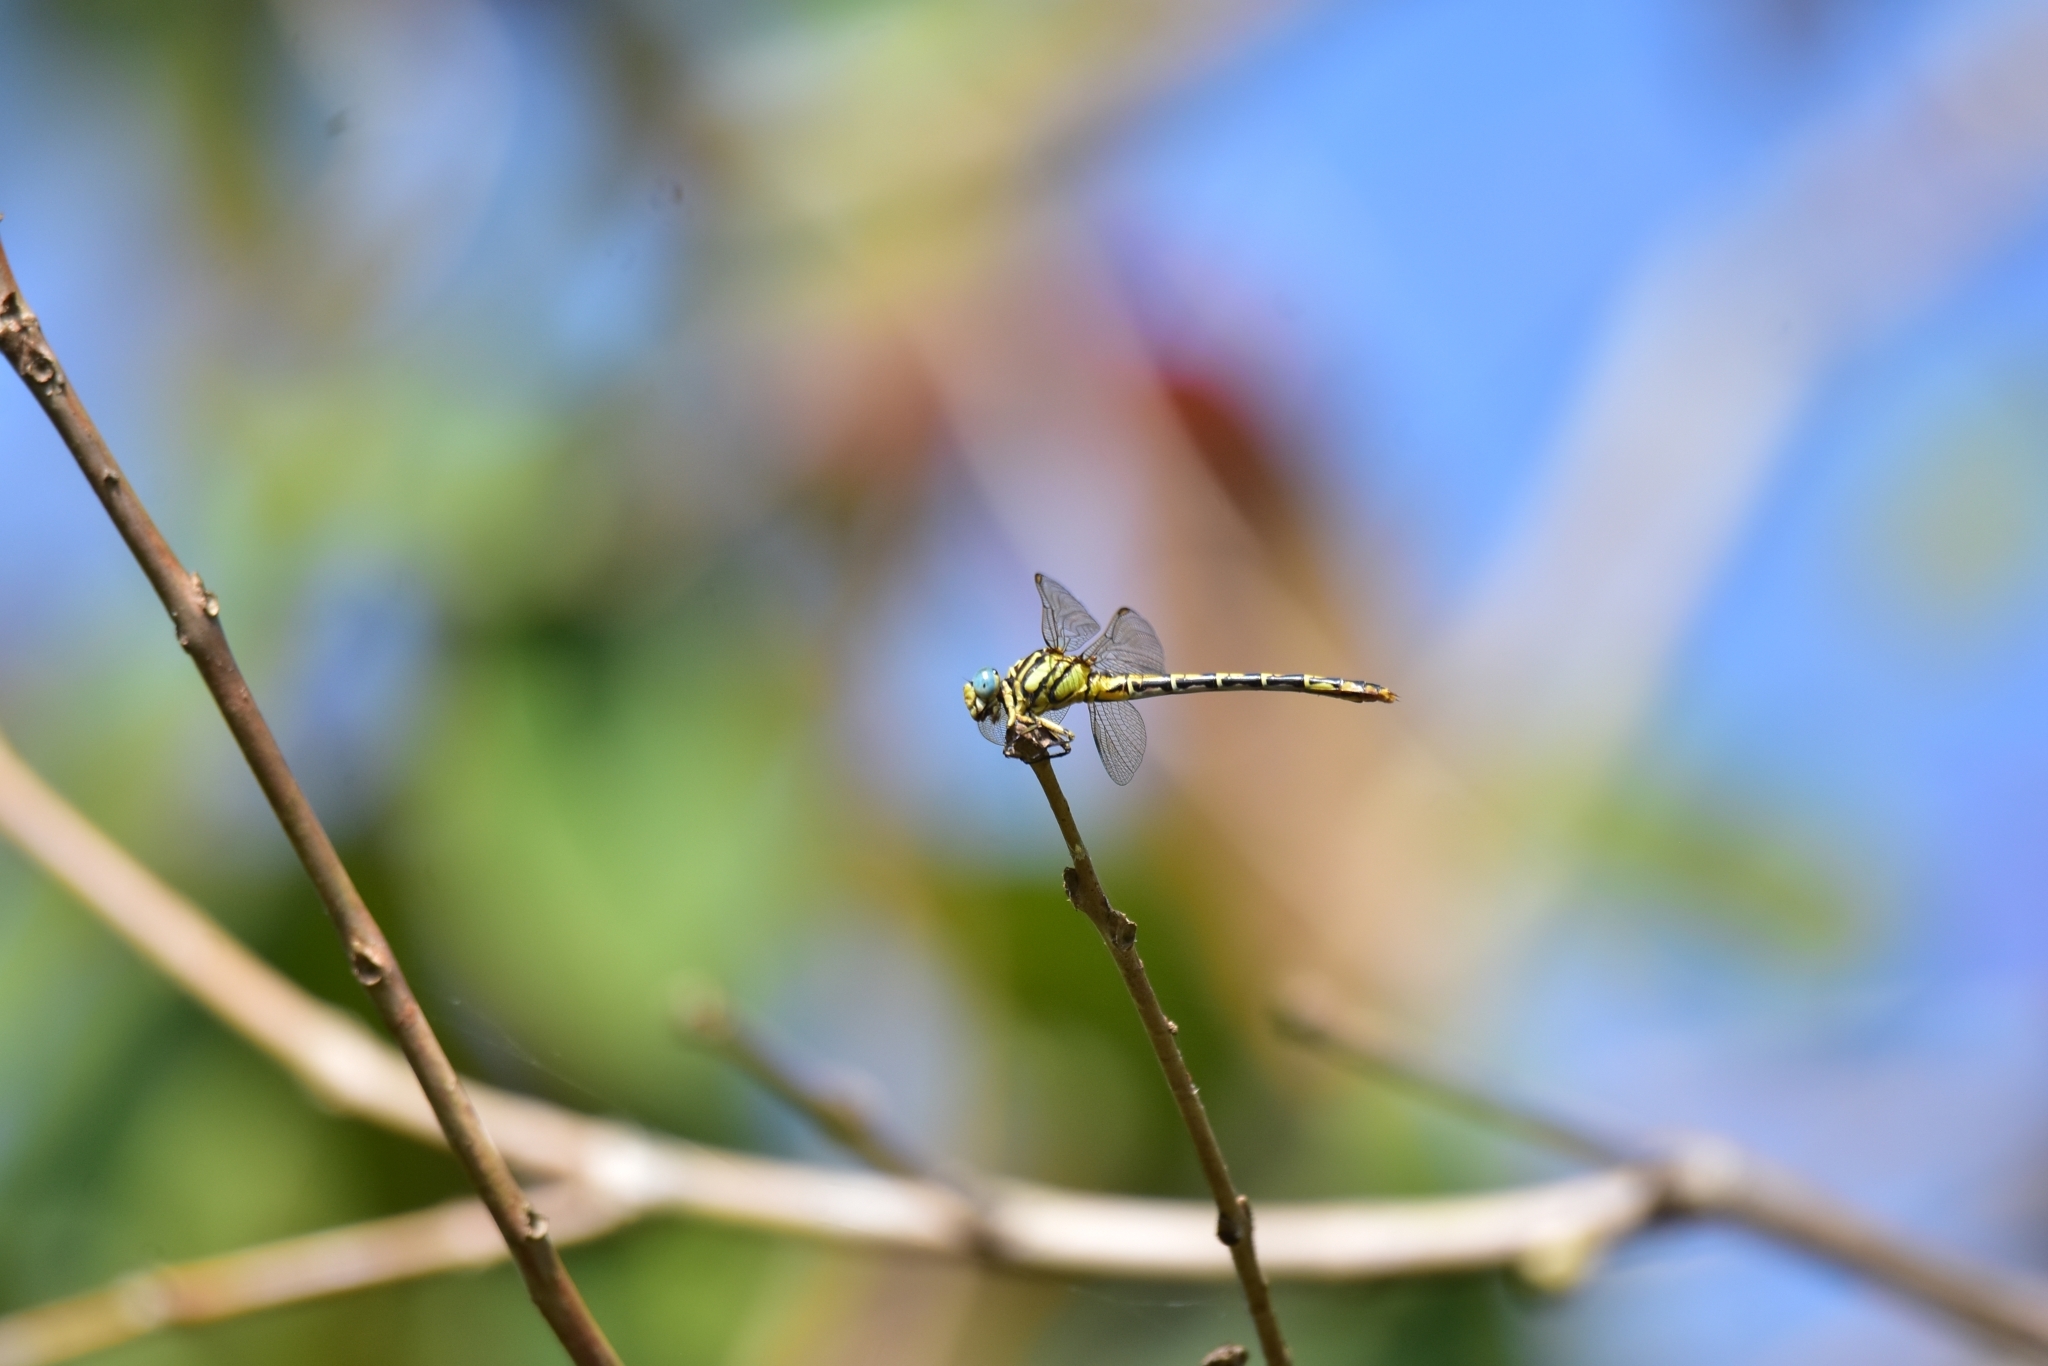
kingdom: Animalia
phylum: Arthropoda
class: Insecta
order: Odonata
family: Gomphidae
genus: Paragomphus
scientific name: Paragomphus lineatus
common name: Lined hooktail
